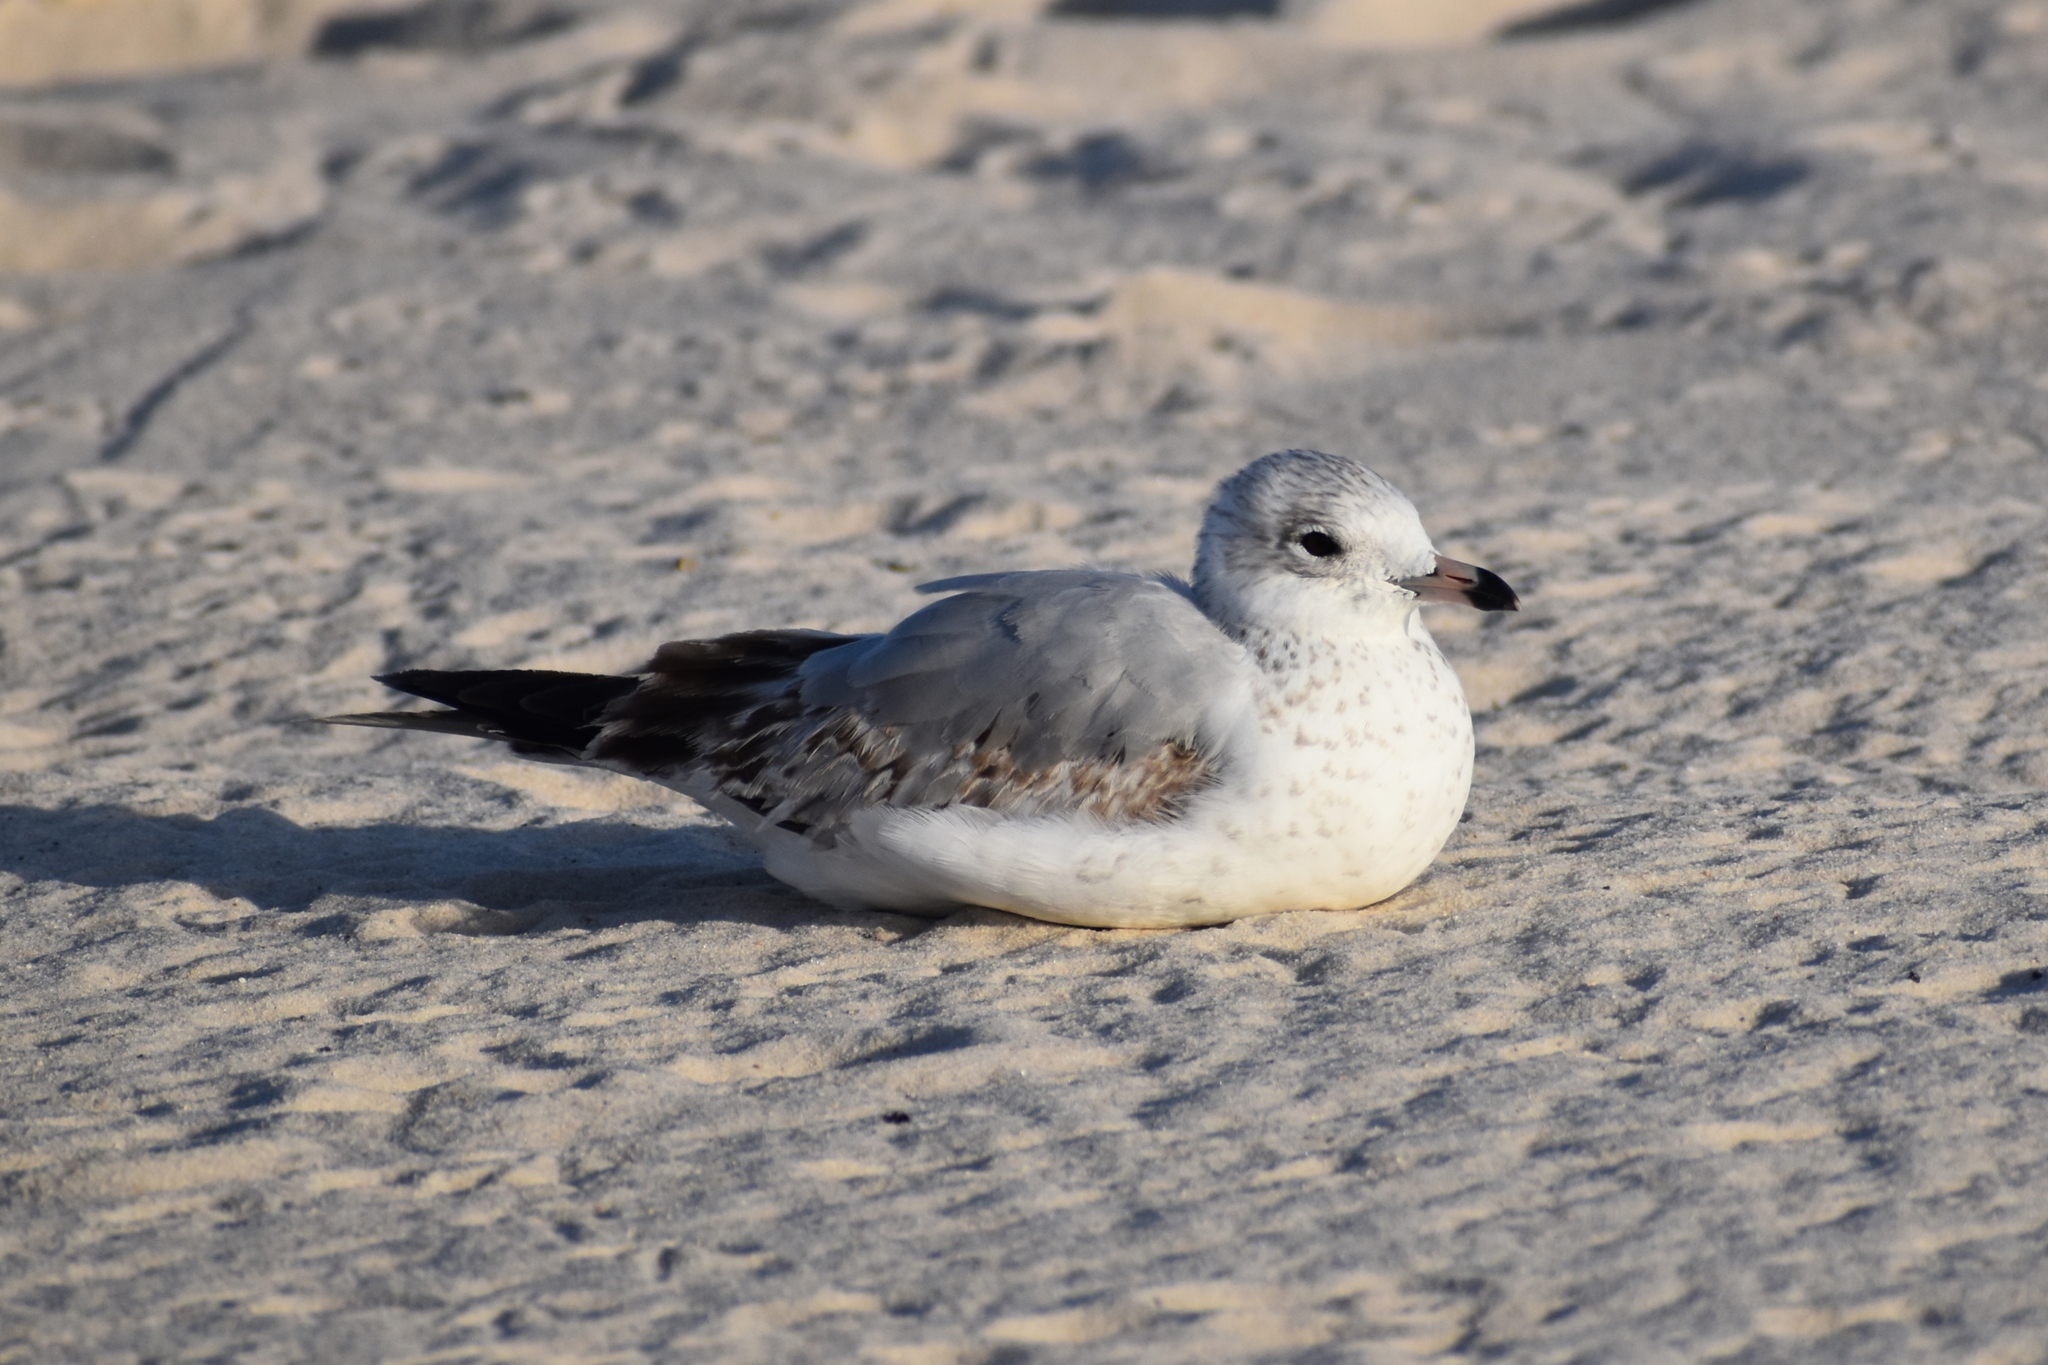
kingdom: Animalia
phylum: Chordata
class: Aves
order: Charadriiformes
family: Laridae
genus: Larus
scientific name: Larus delawarensis
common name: Ring-billed gull
